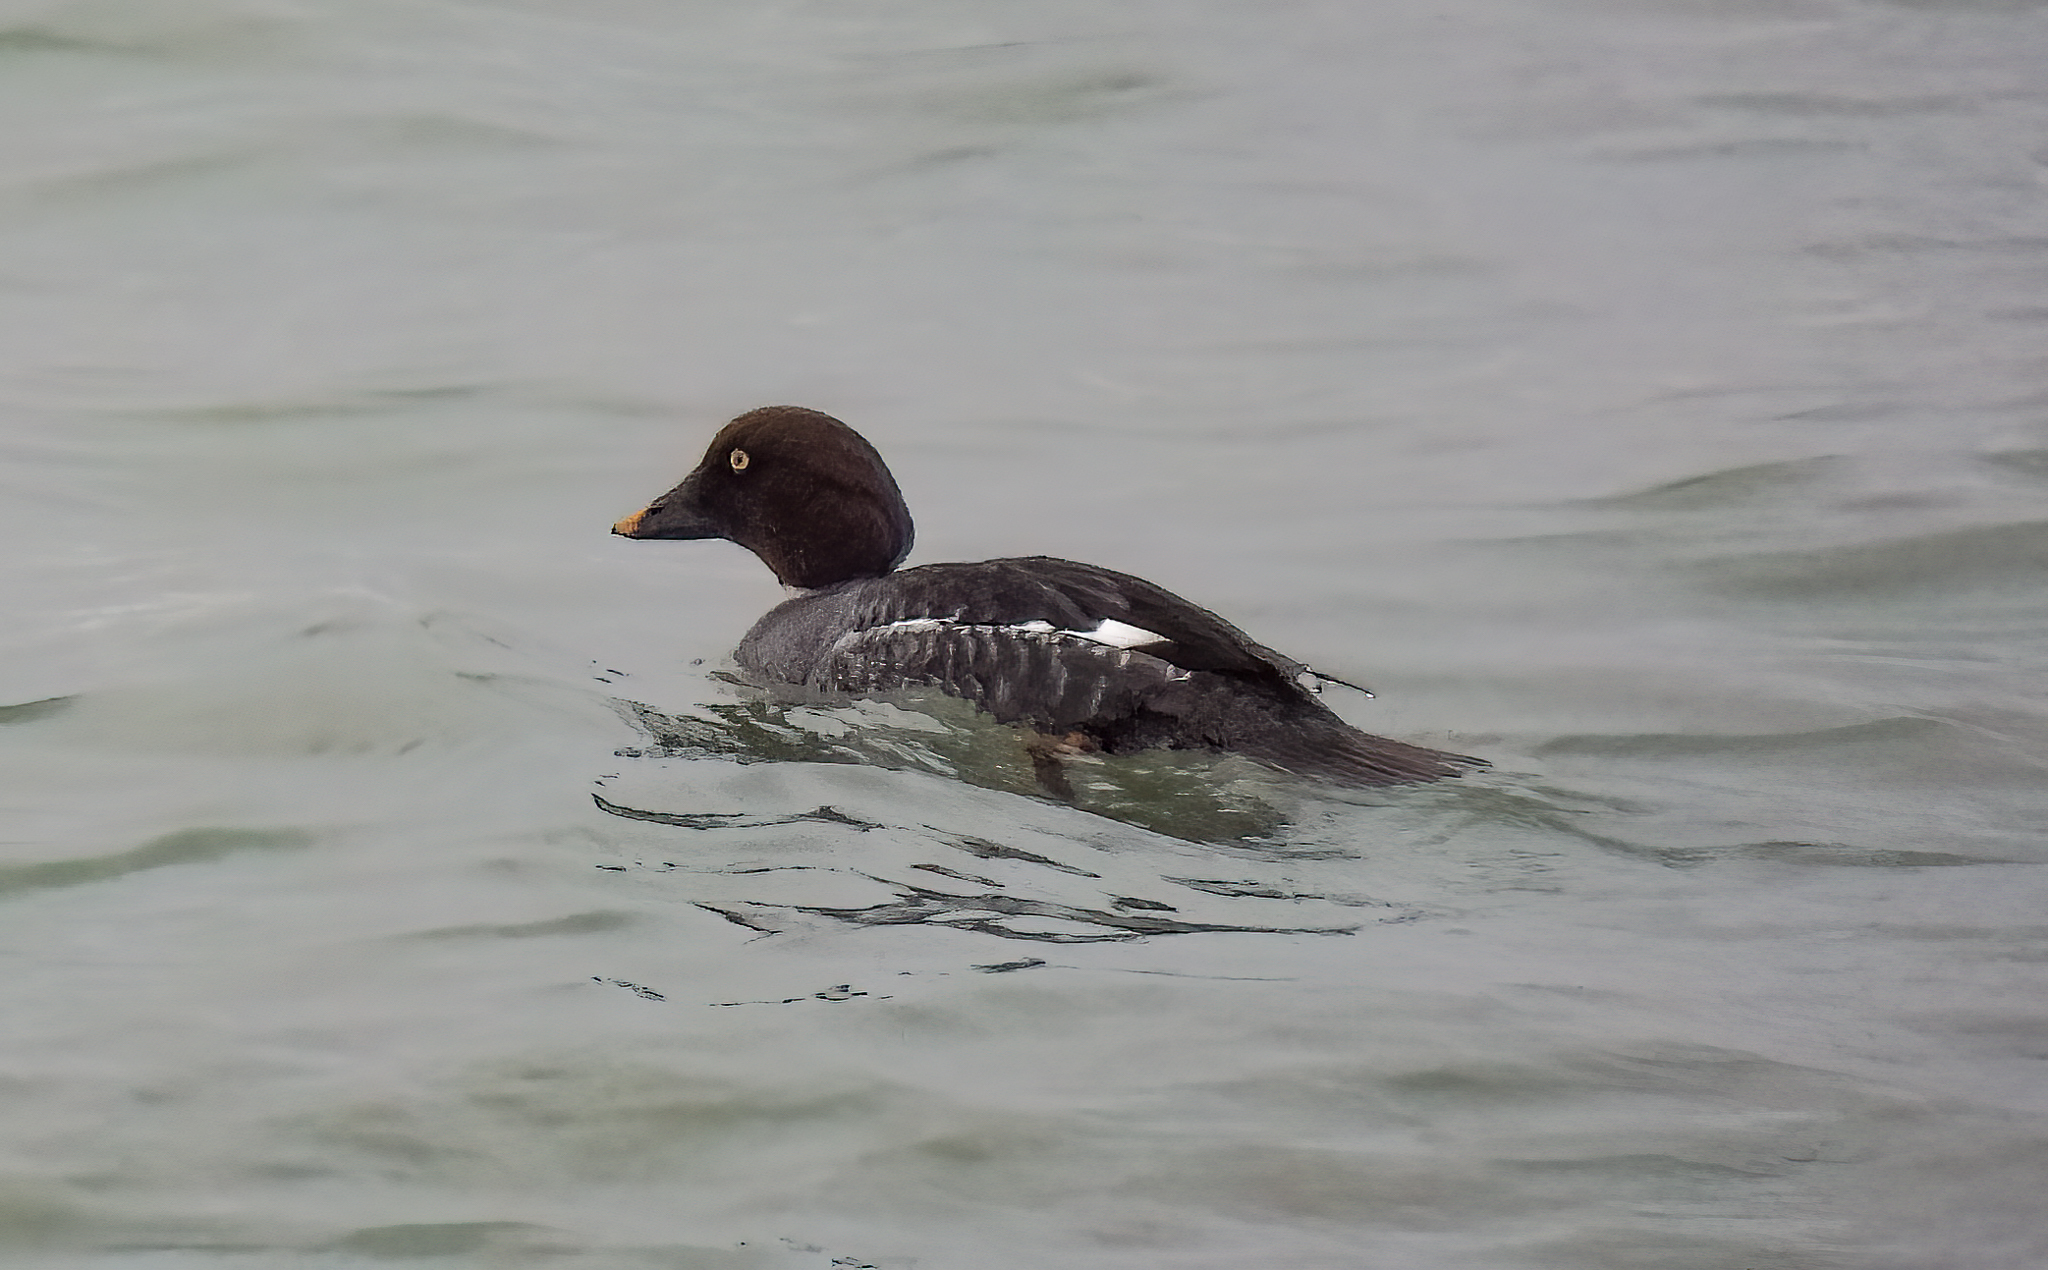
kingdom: Animalia
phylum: Chordata
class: Aves
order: Anseriformes
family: Anatidae
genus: Bucephala
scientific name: Bucephala clangula
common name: Common goldeneye
